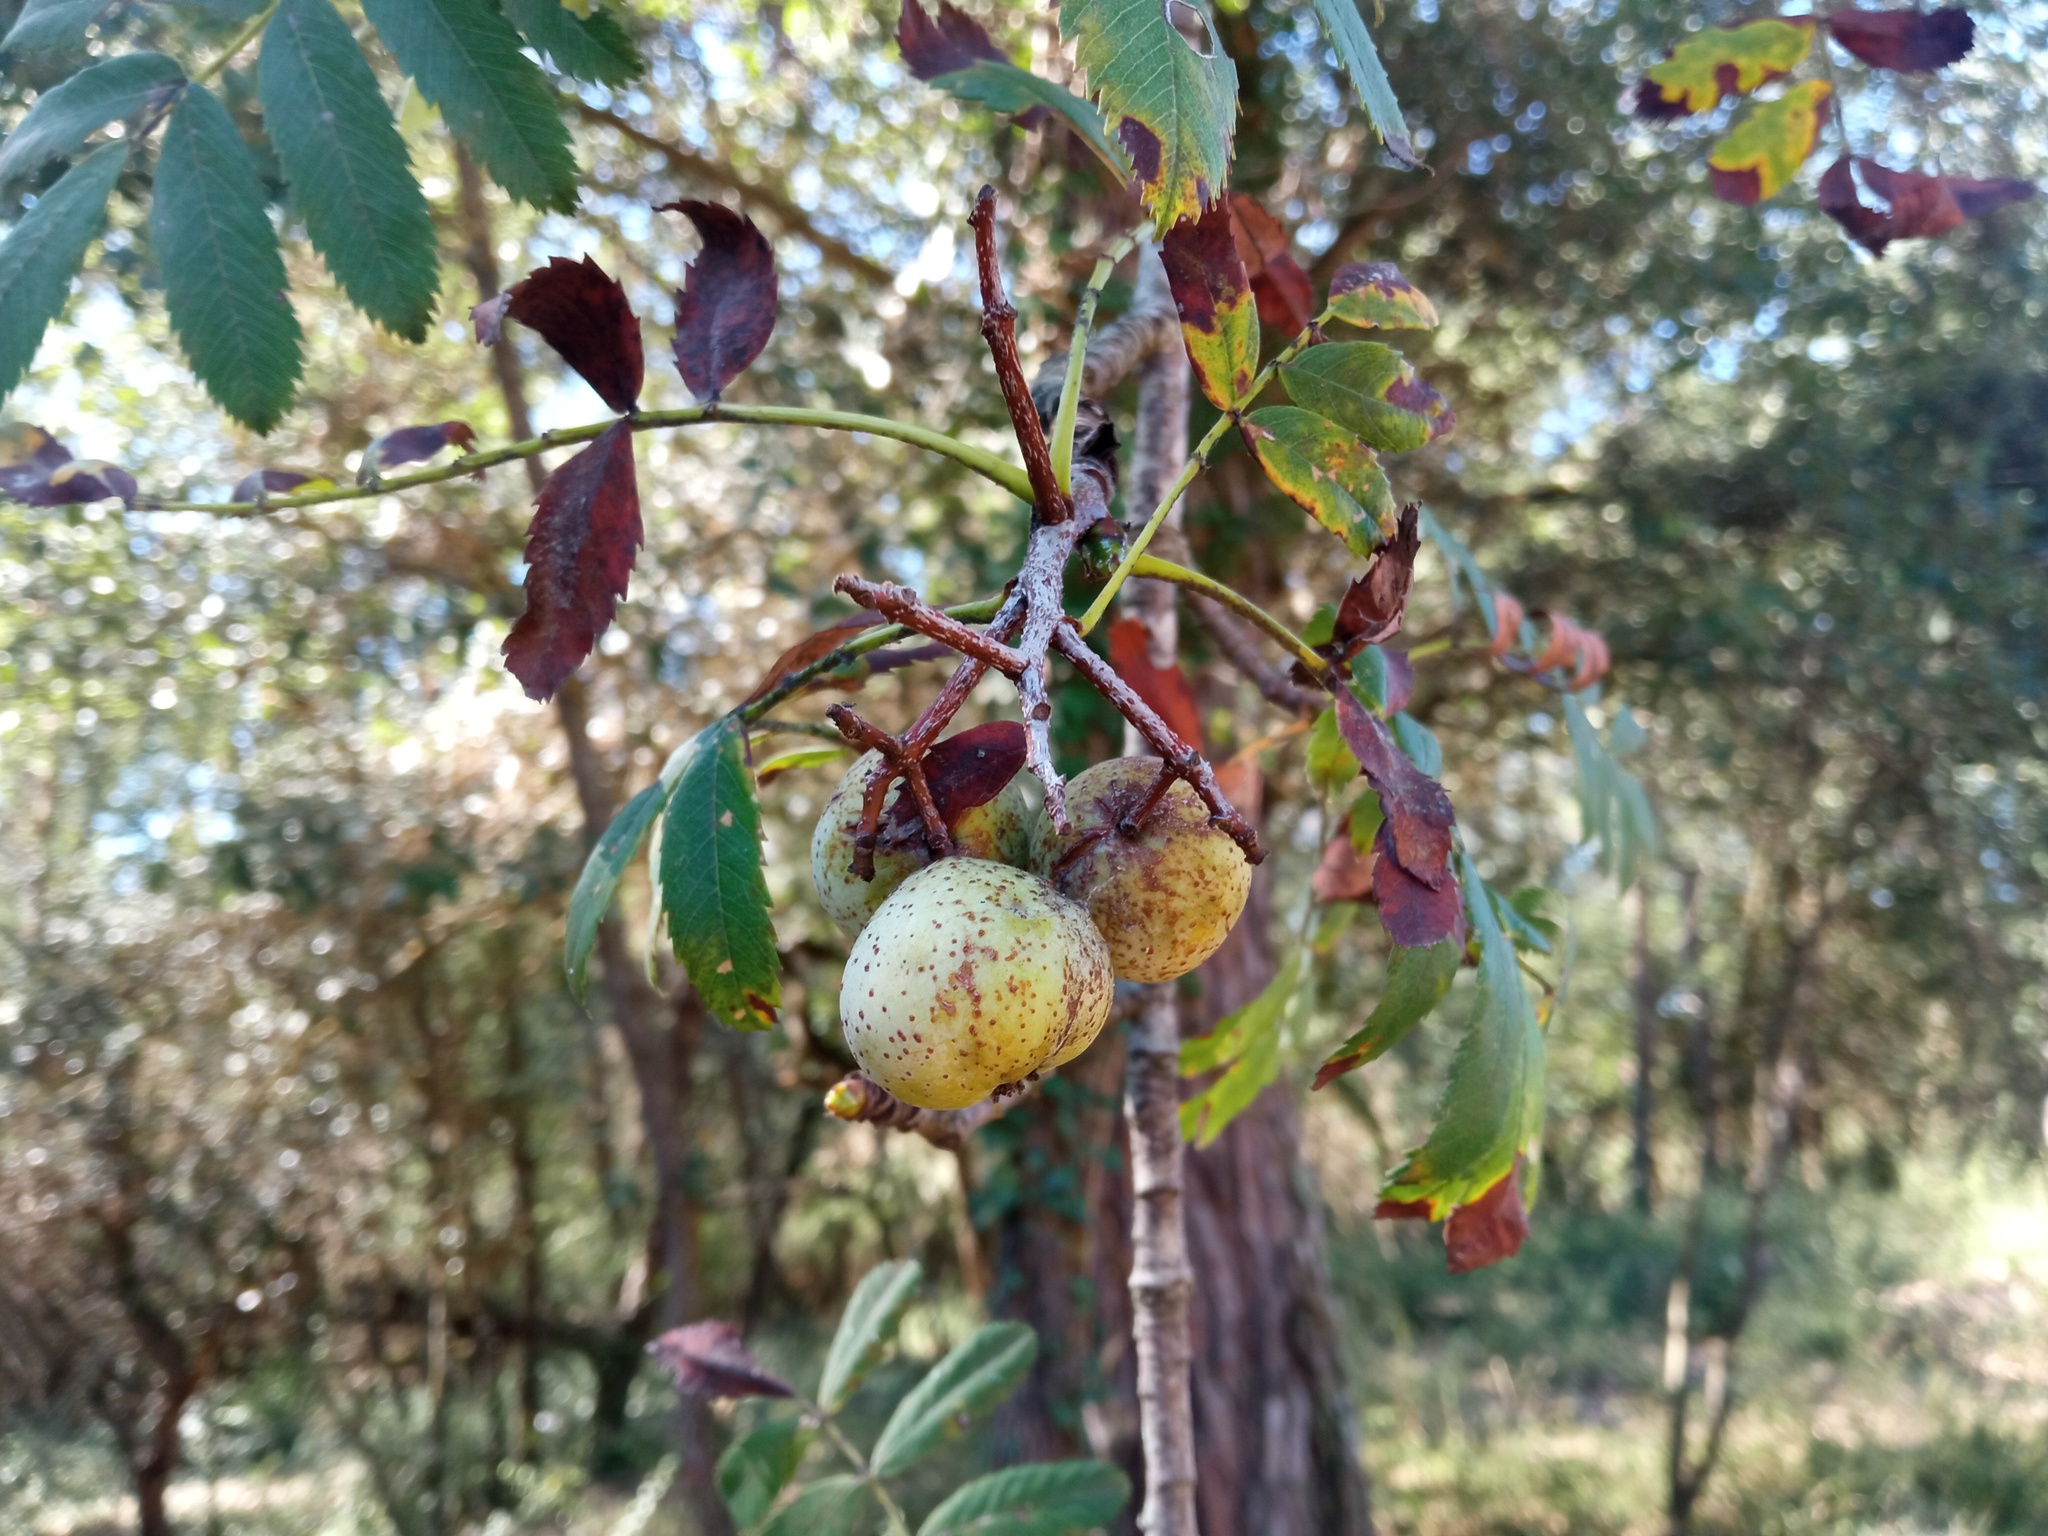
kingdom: Plantae
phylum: Tracheophyta
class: Magnoliopsida
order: Rosales
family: Rosaceae
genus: Cormus
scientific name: Cormus domestica
